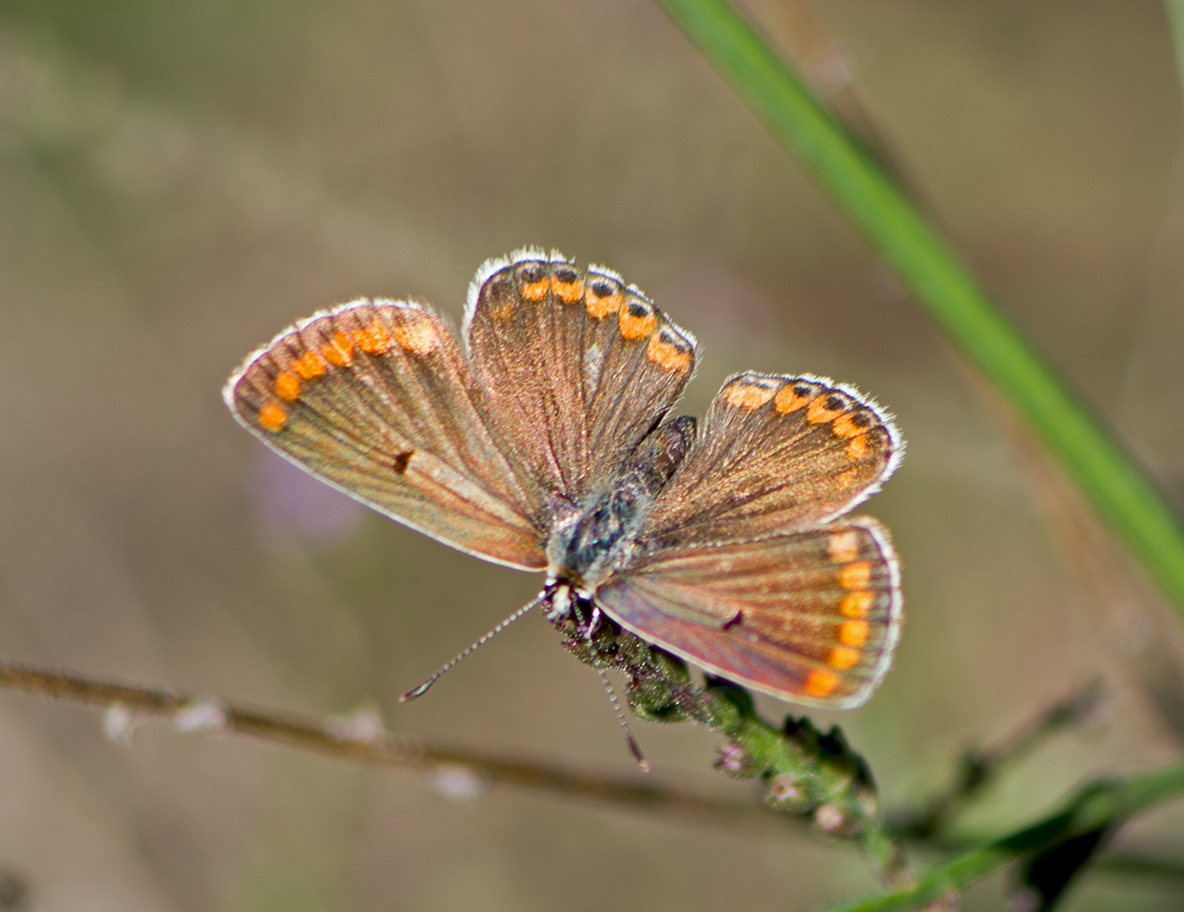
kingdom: Animalia
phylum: Arthropoda
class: Insecta
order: Lepidoptera
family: Lycaenidae
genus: Aricia
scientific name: Aricia agestis
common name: Brown argus
